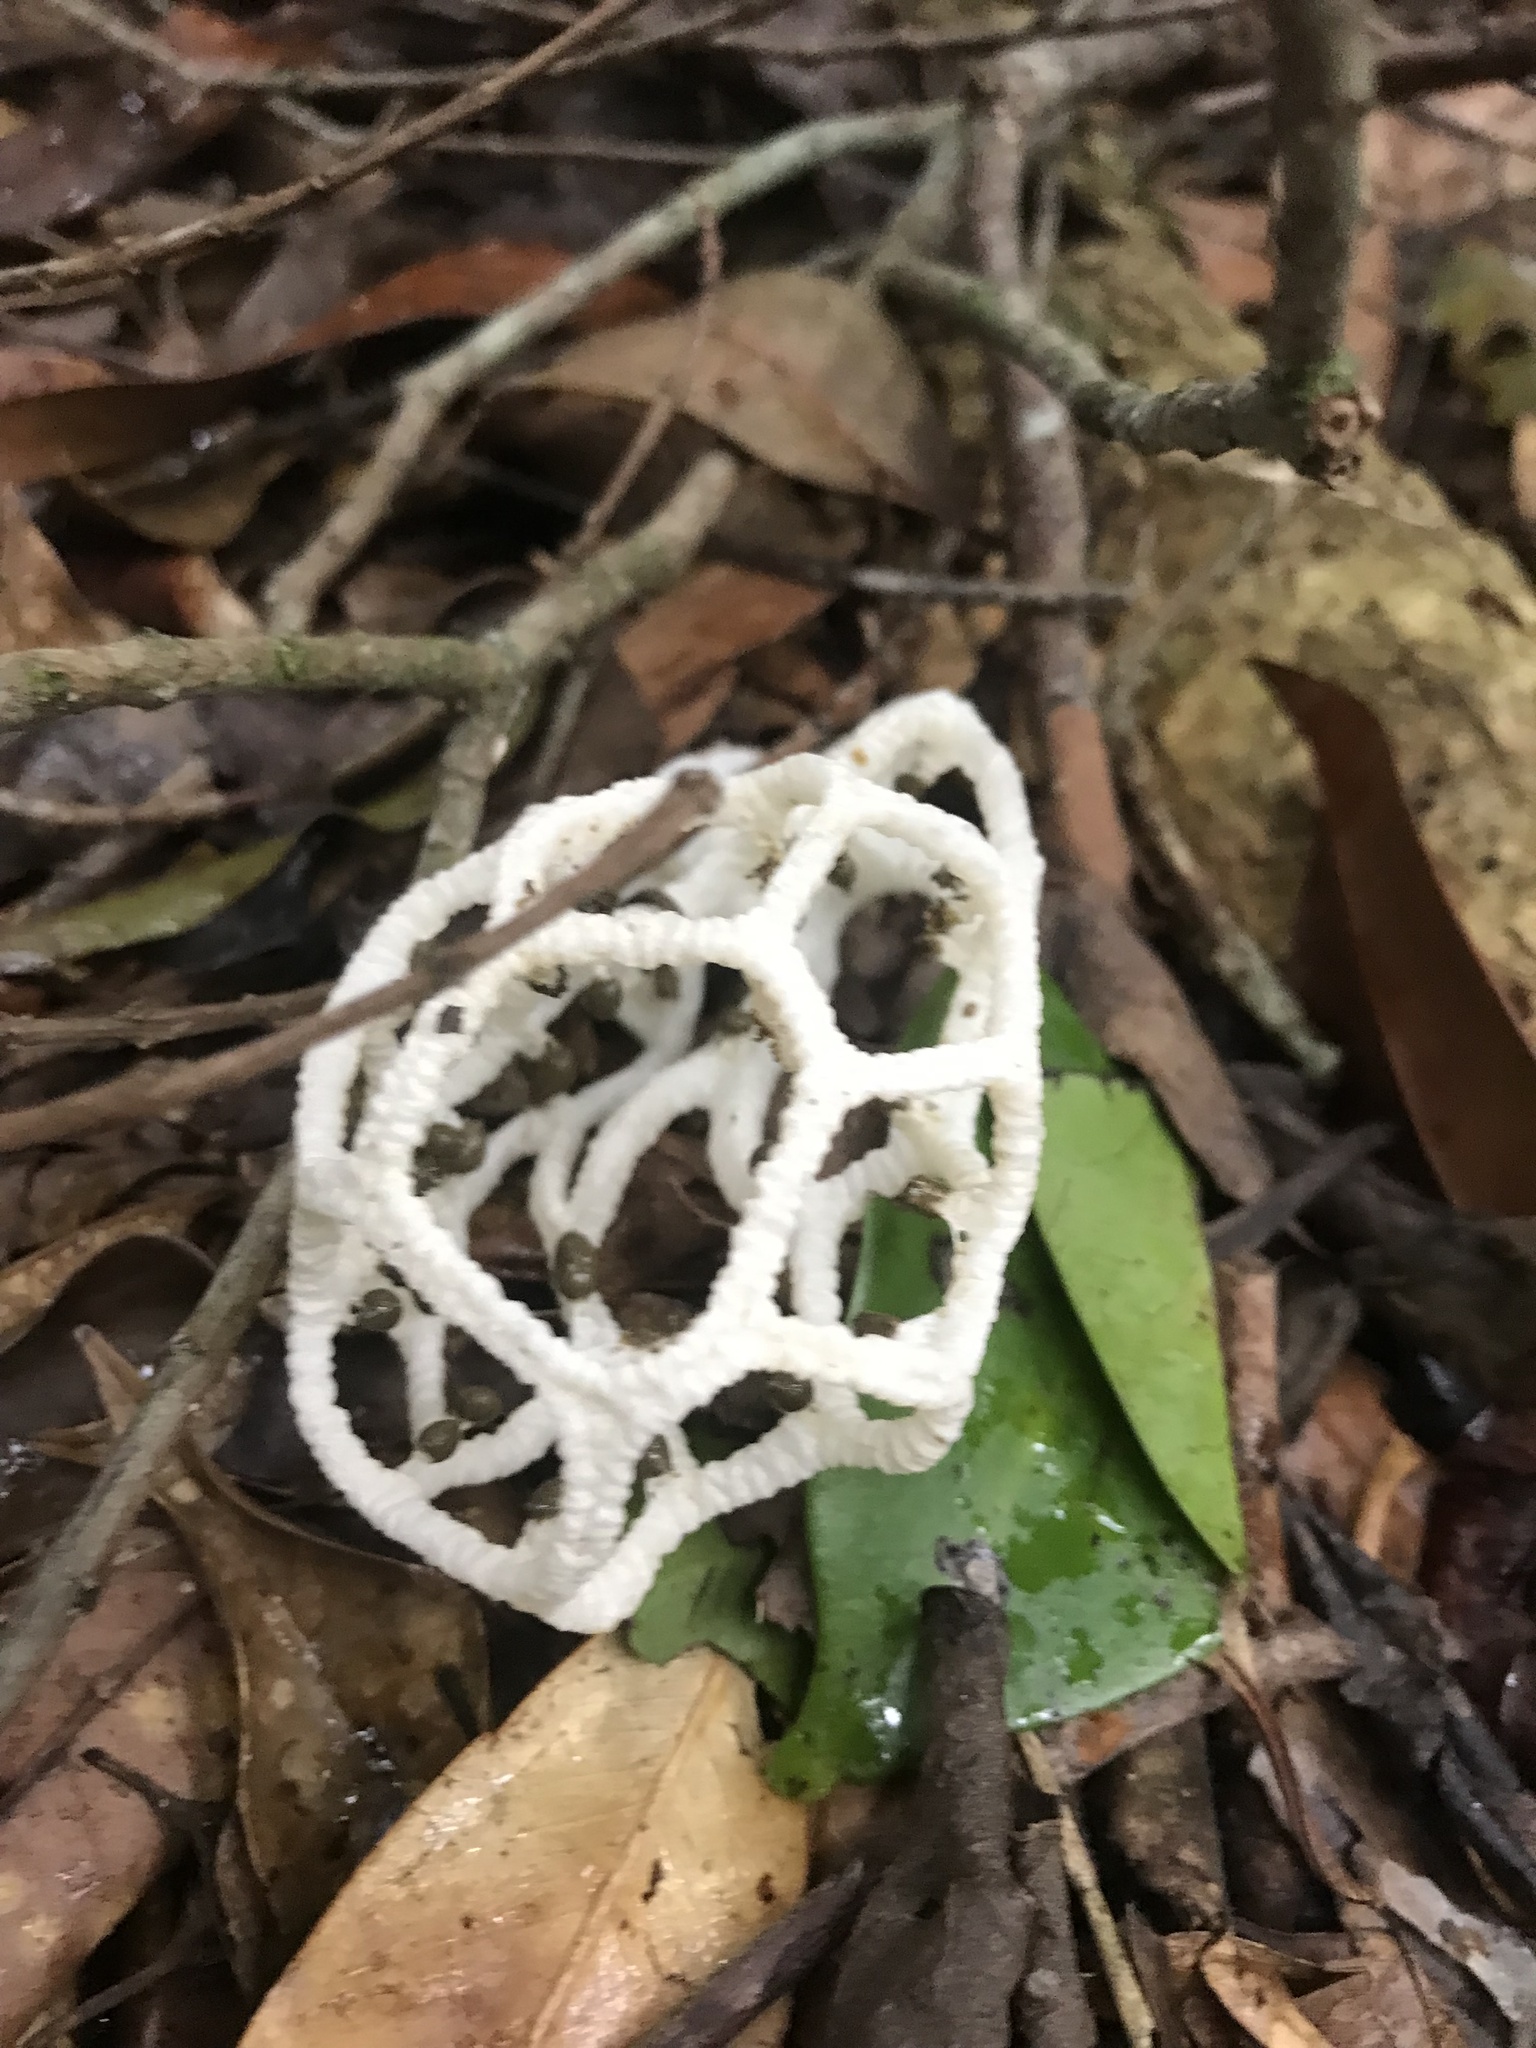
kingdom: Fungi
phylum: Basidiomycota
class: Agaricomycetes
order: Phallales
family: Phallaceae
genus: Clathrus
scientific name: Clathrus chrysomycelinus
